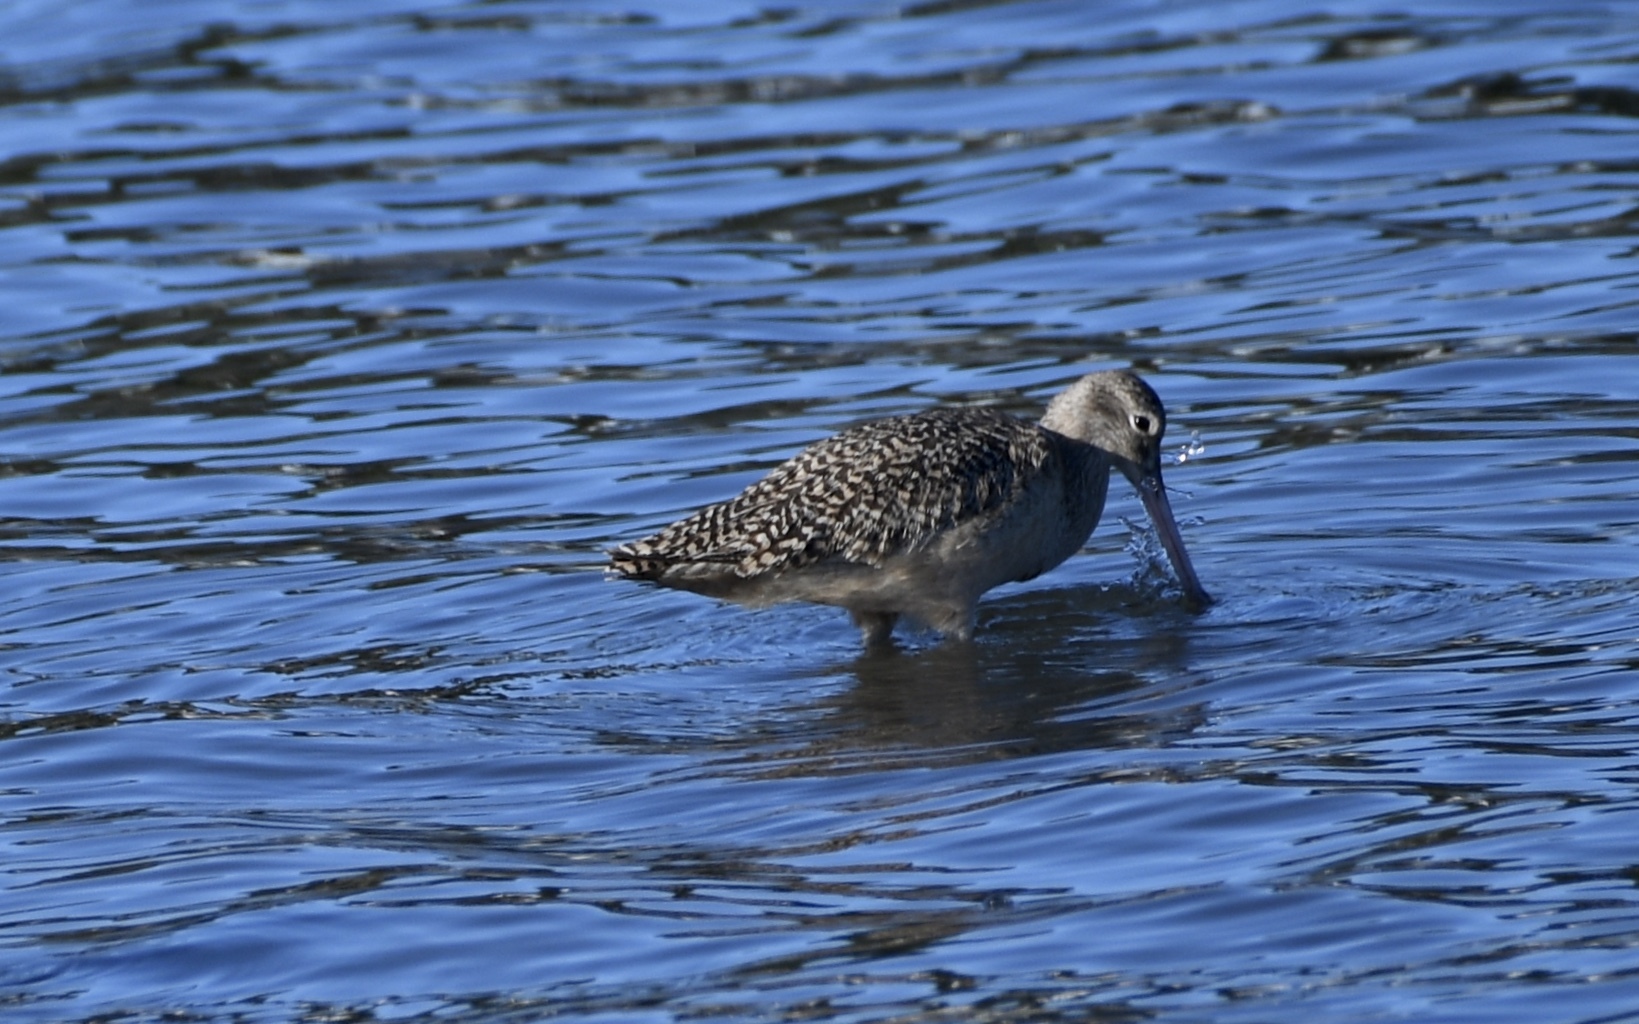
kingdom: Animalia
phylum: Chordata
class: Aves
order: Charadriiformes
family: Scolopacidae
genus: Limosa
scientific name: Limosa fedoa
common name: Marbled godwit
